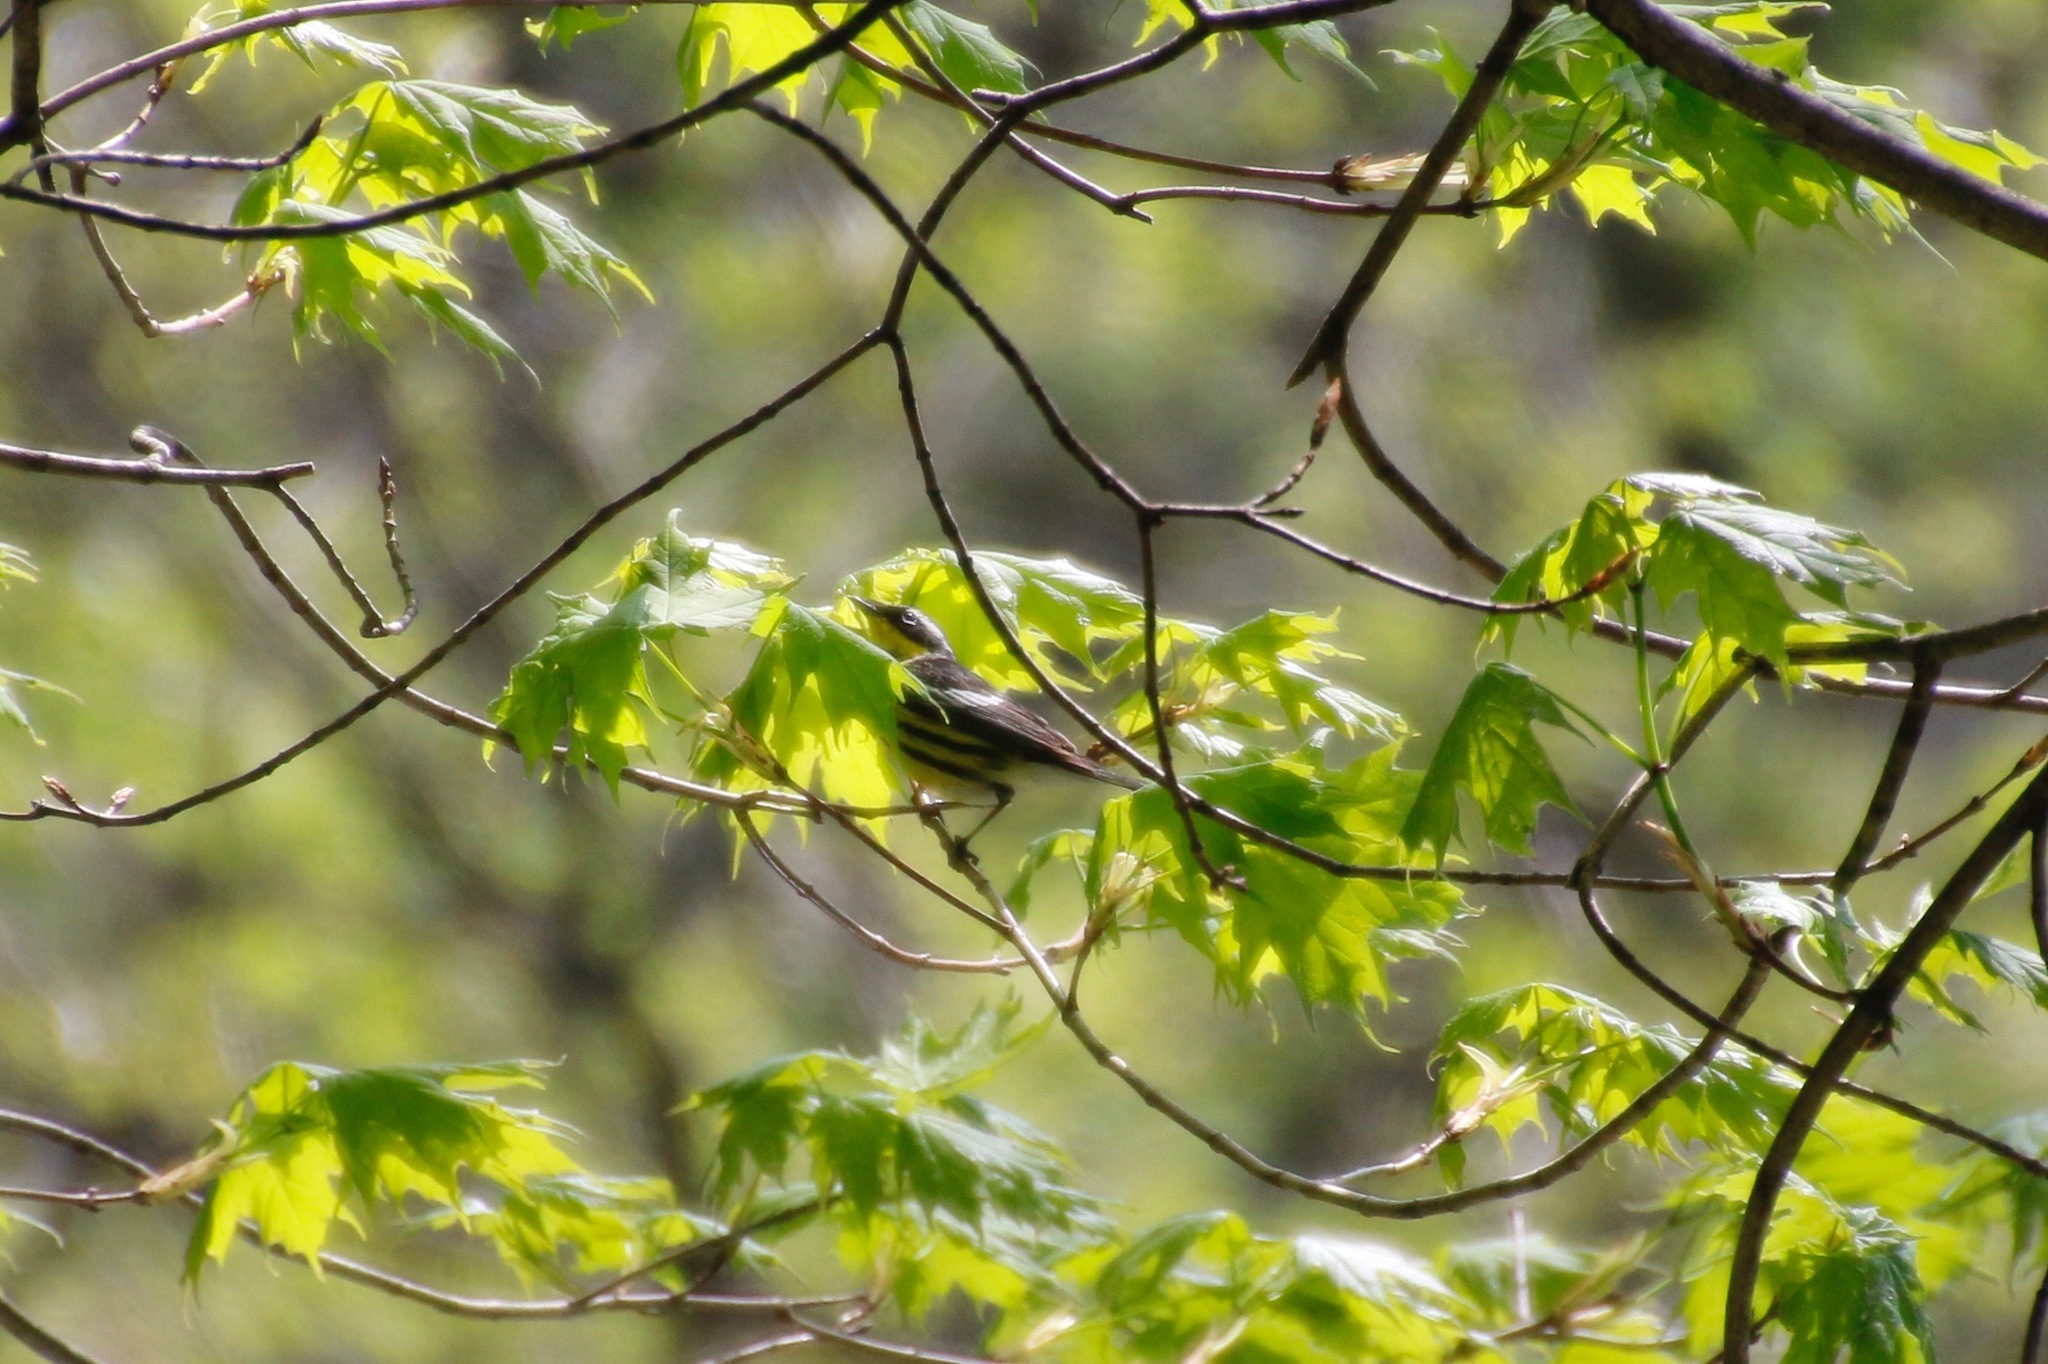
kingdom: Animalia
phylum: Chordata
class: Aves
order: Passeriformes
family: Parulidae
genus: Setophaga
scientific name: Setophaga magnolia
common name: Magnolia warbler
